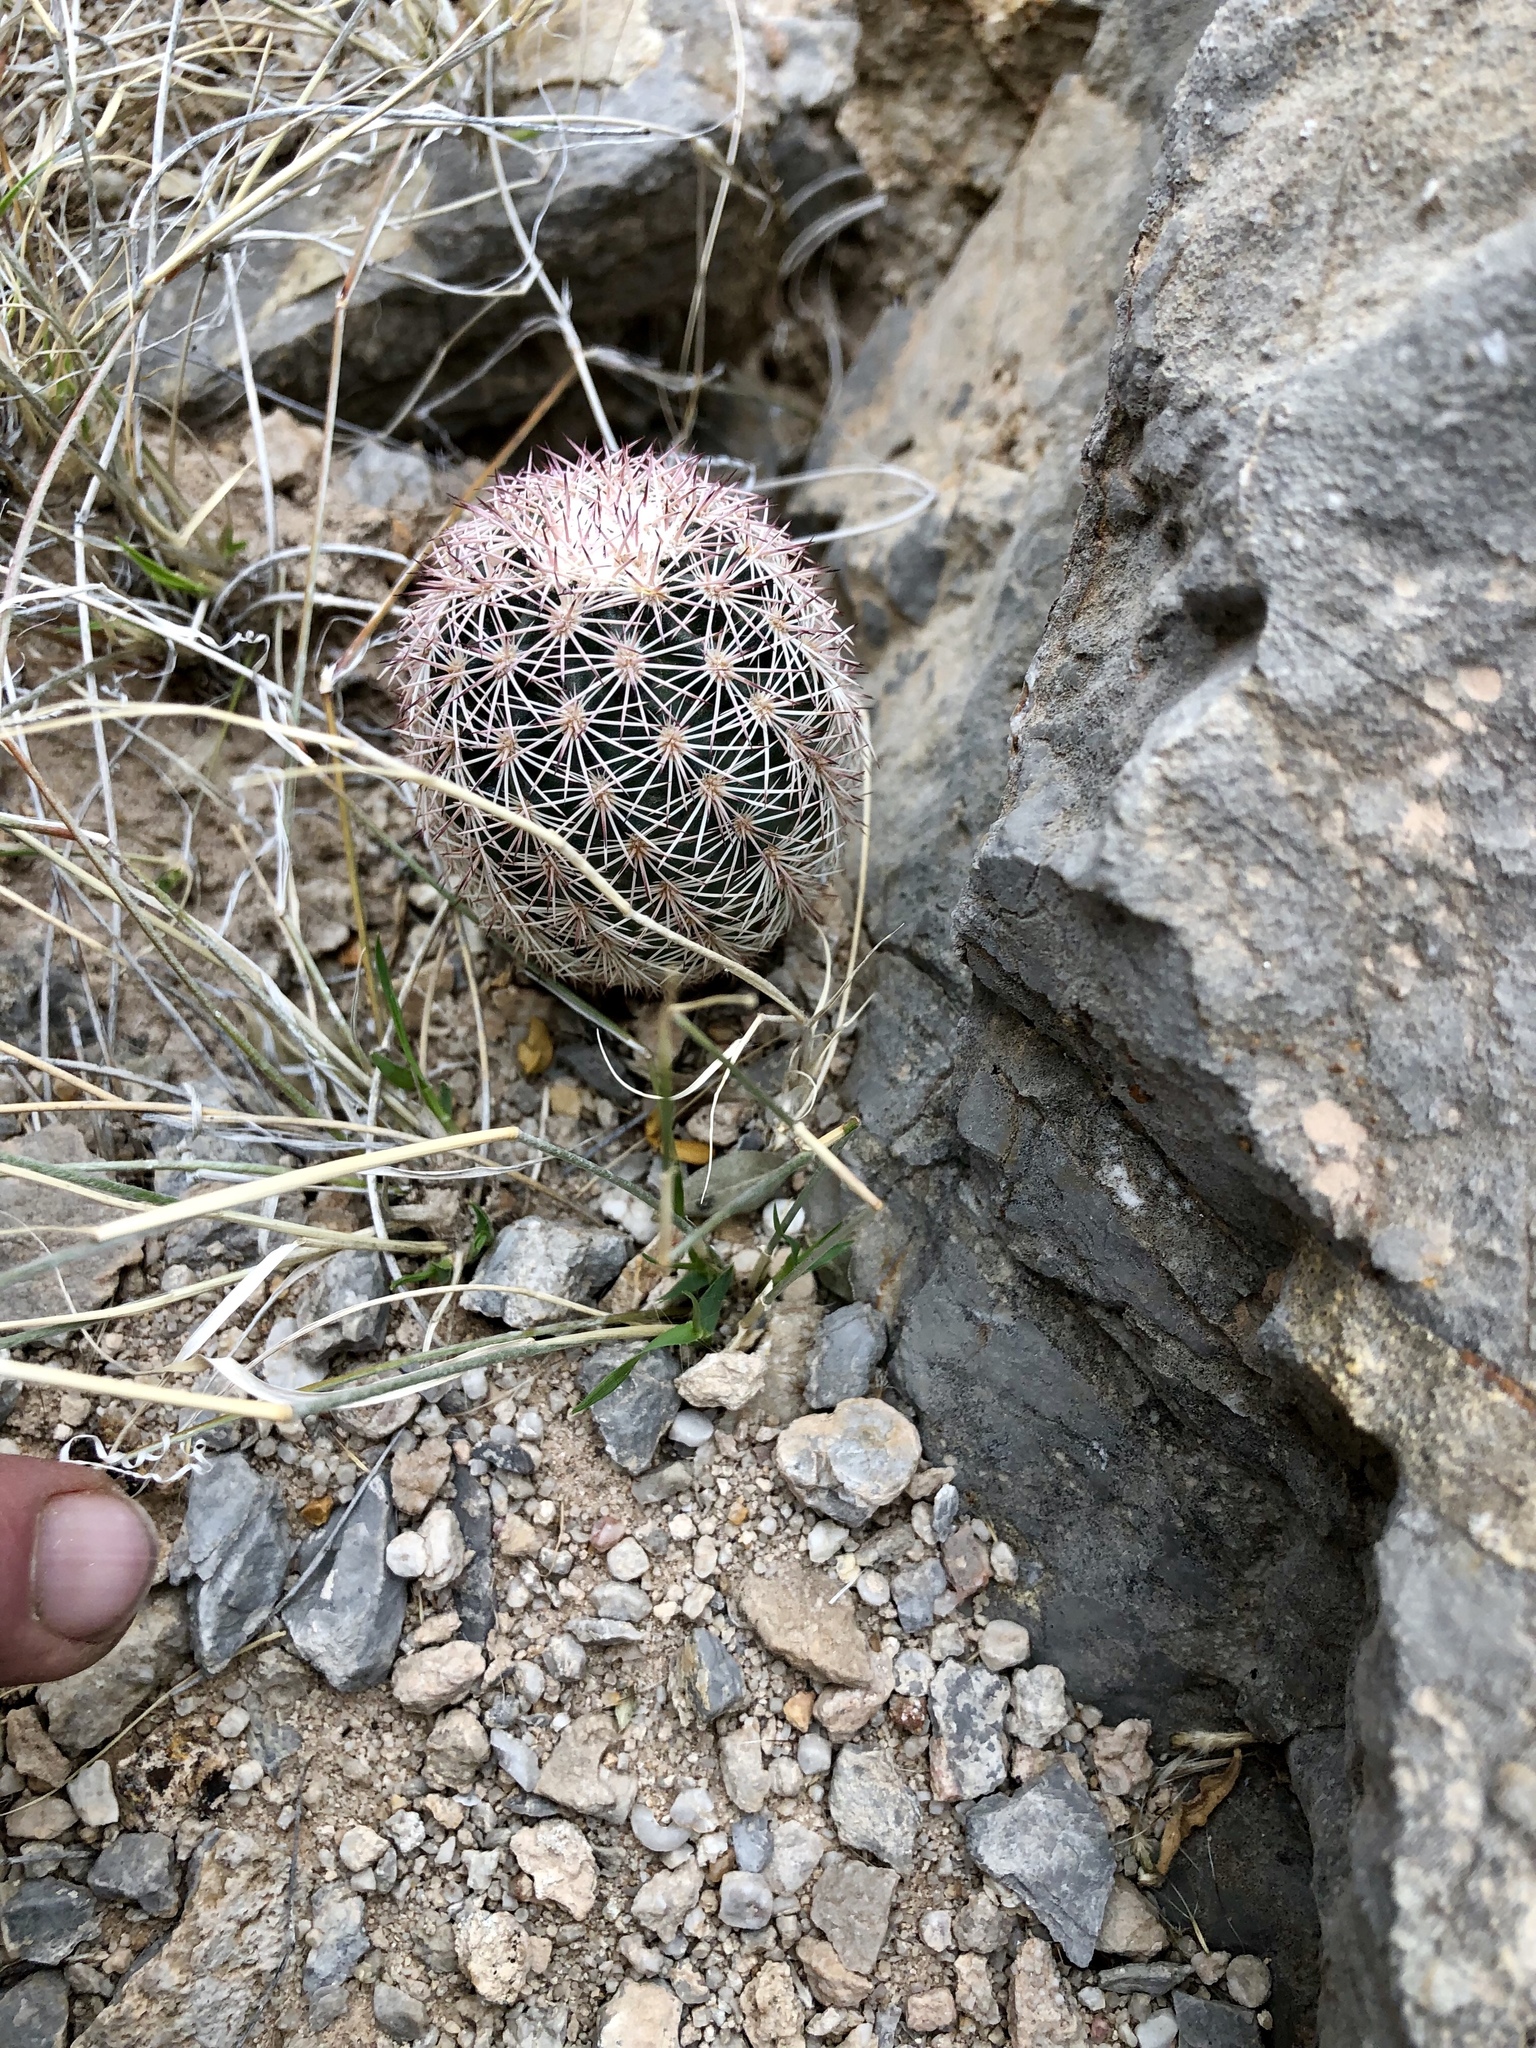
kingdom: Plantae
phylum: Tracheophyta
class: Magnoliopsida
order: Caryophyllales
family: Cactaceae
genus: Echinocereus
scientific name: Echinocereus dasyacanthus
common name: Spiny hedgehog cactus
